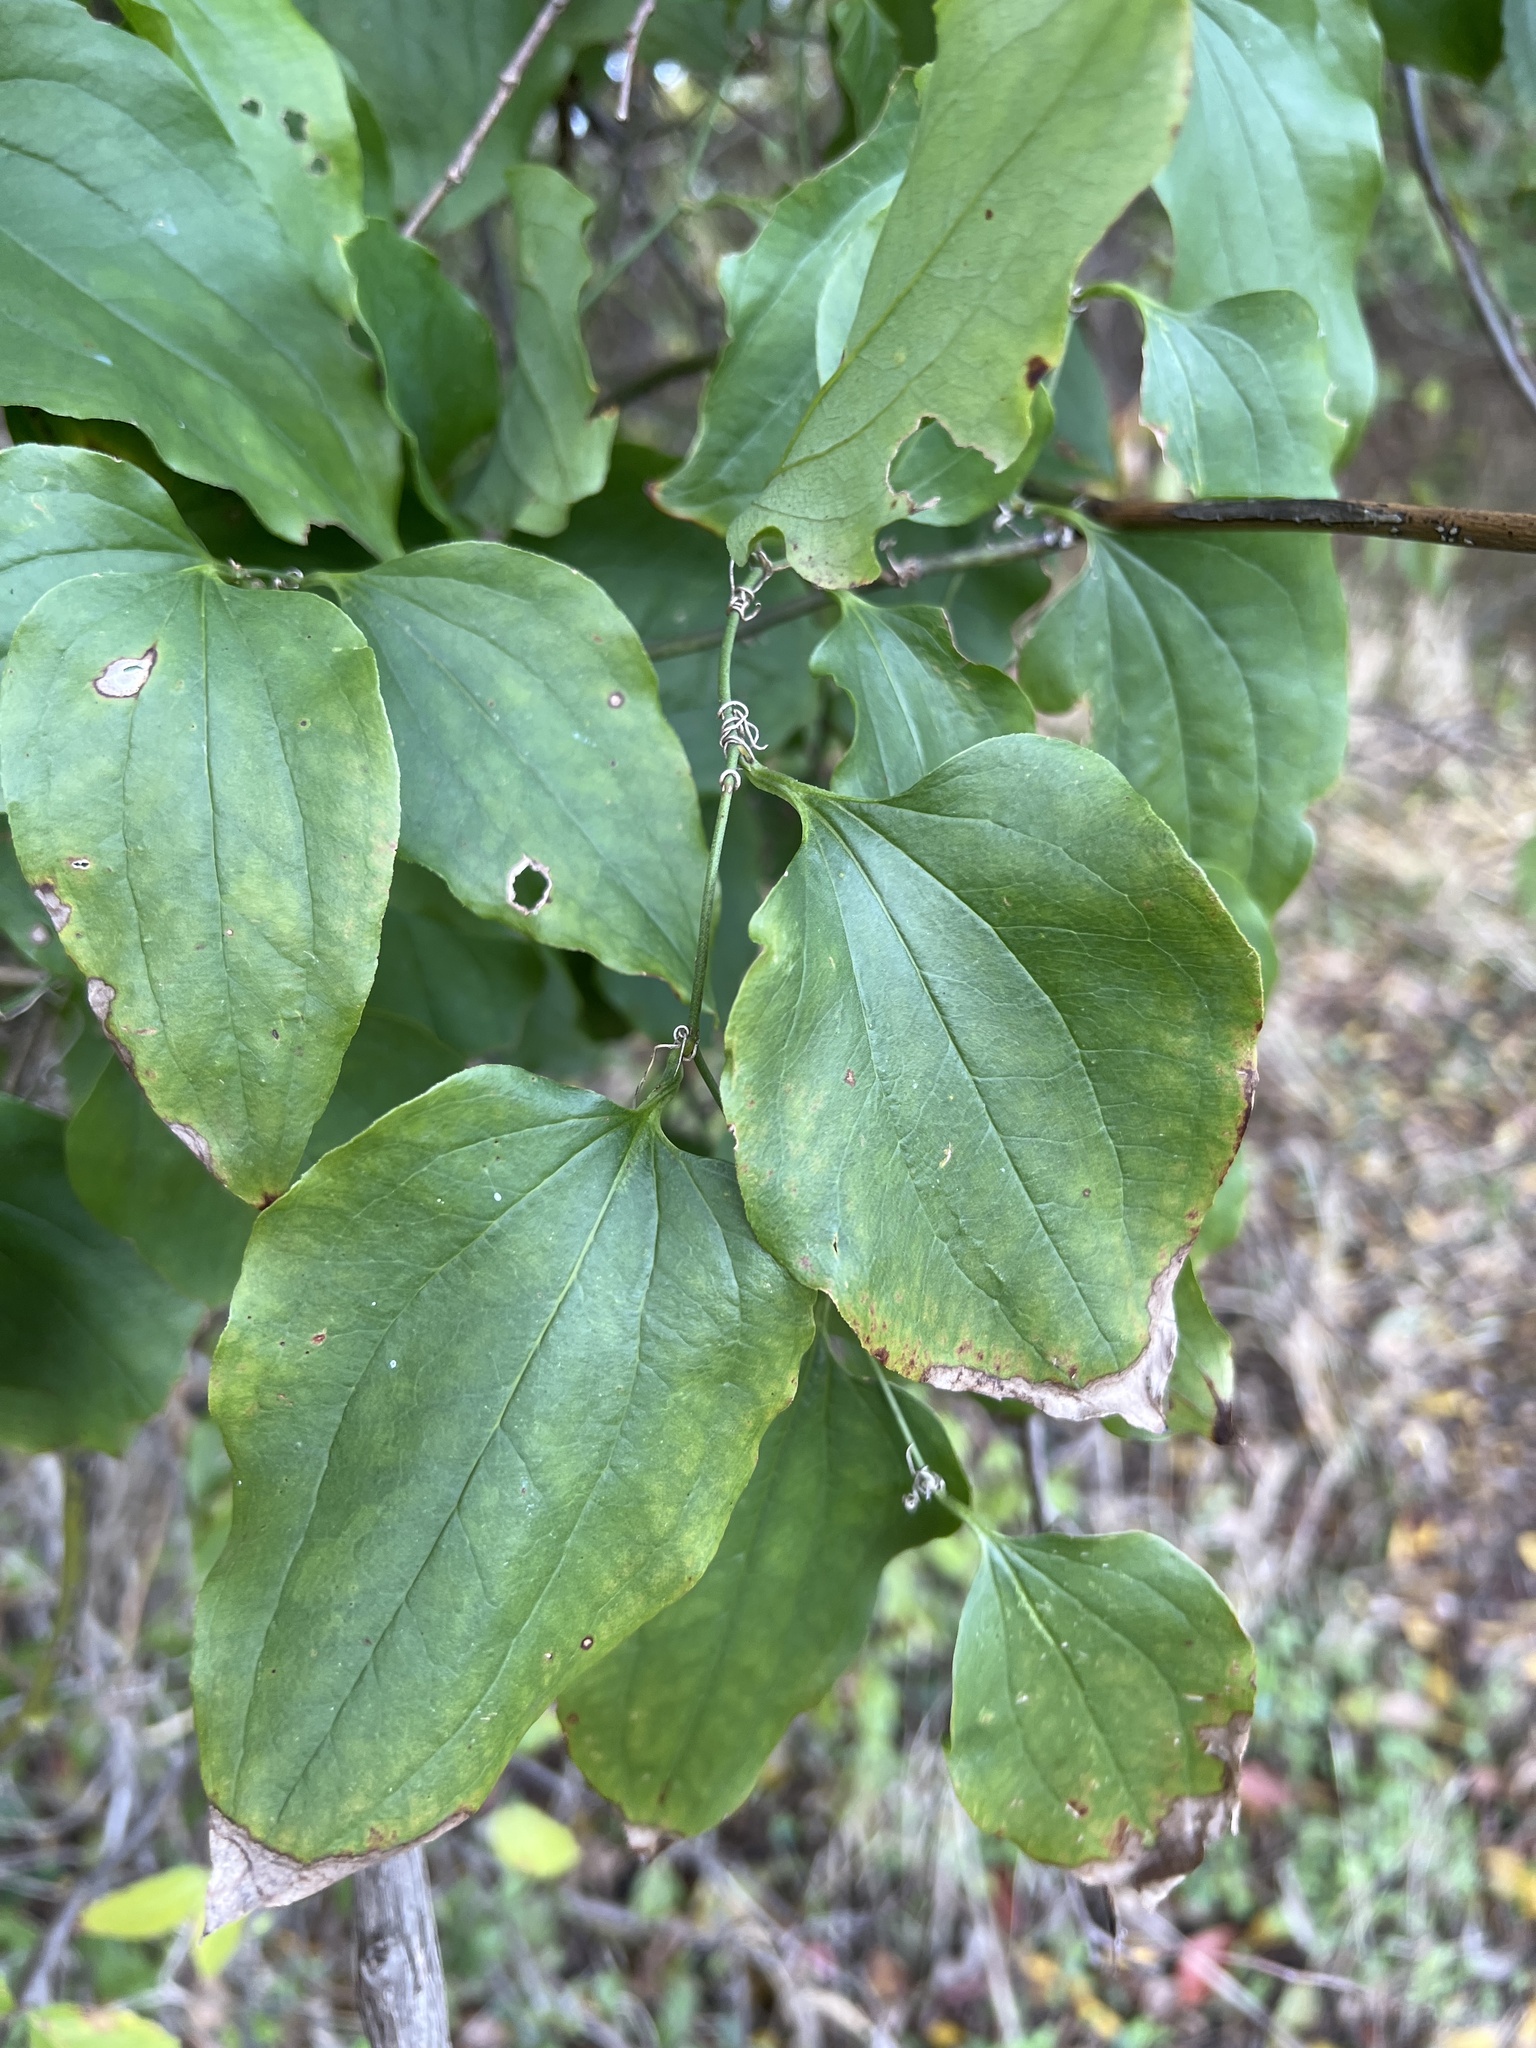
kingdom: Plantae
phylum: Tracheophyta
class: Liliopsida
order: Liliales
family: Smilacaceae
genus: Smilax
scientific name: Smilax rotundifolia
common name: Bullbriar
